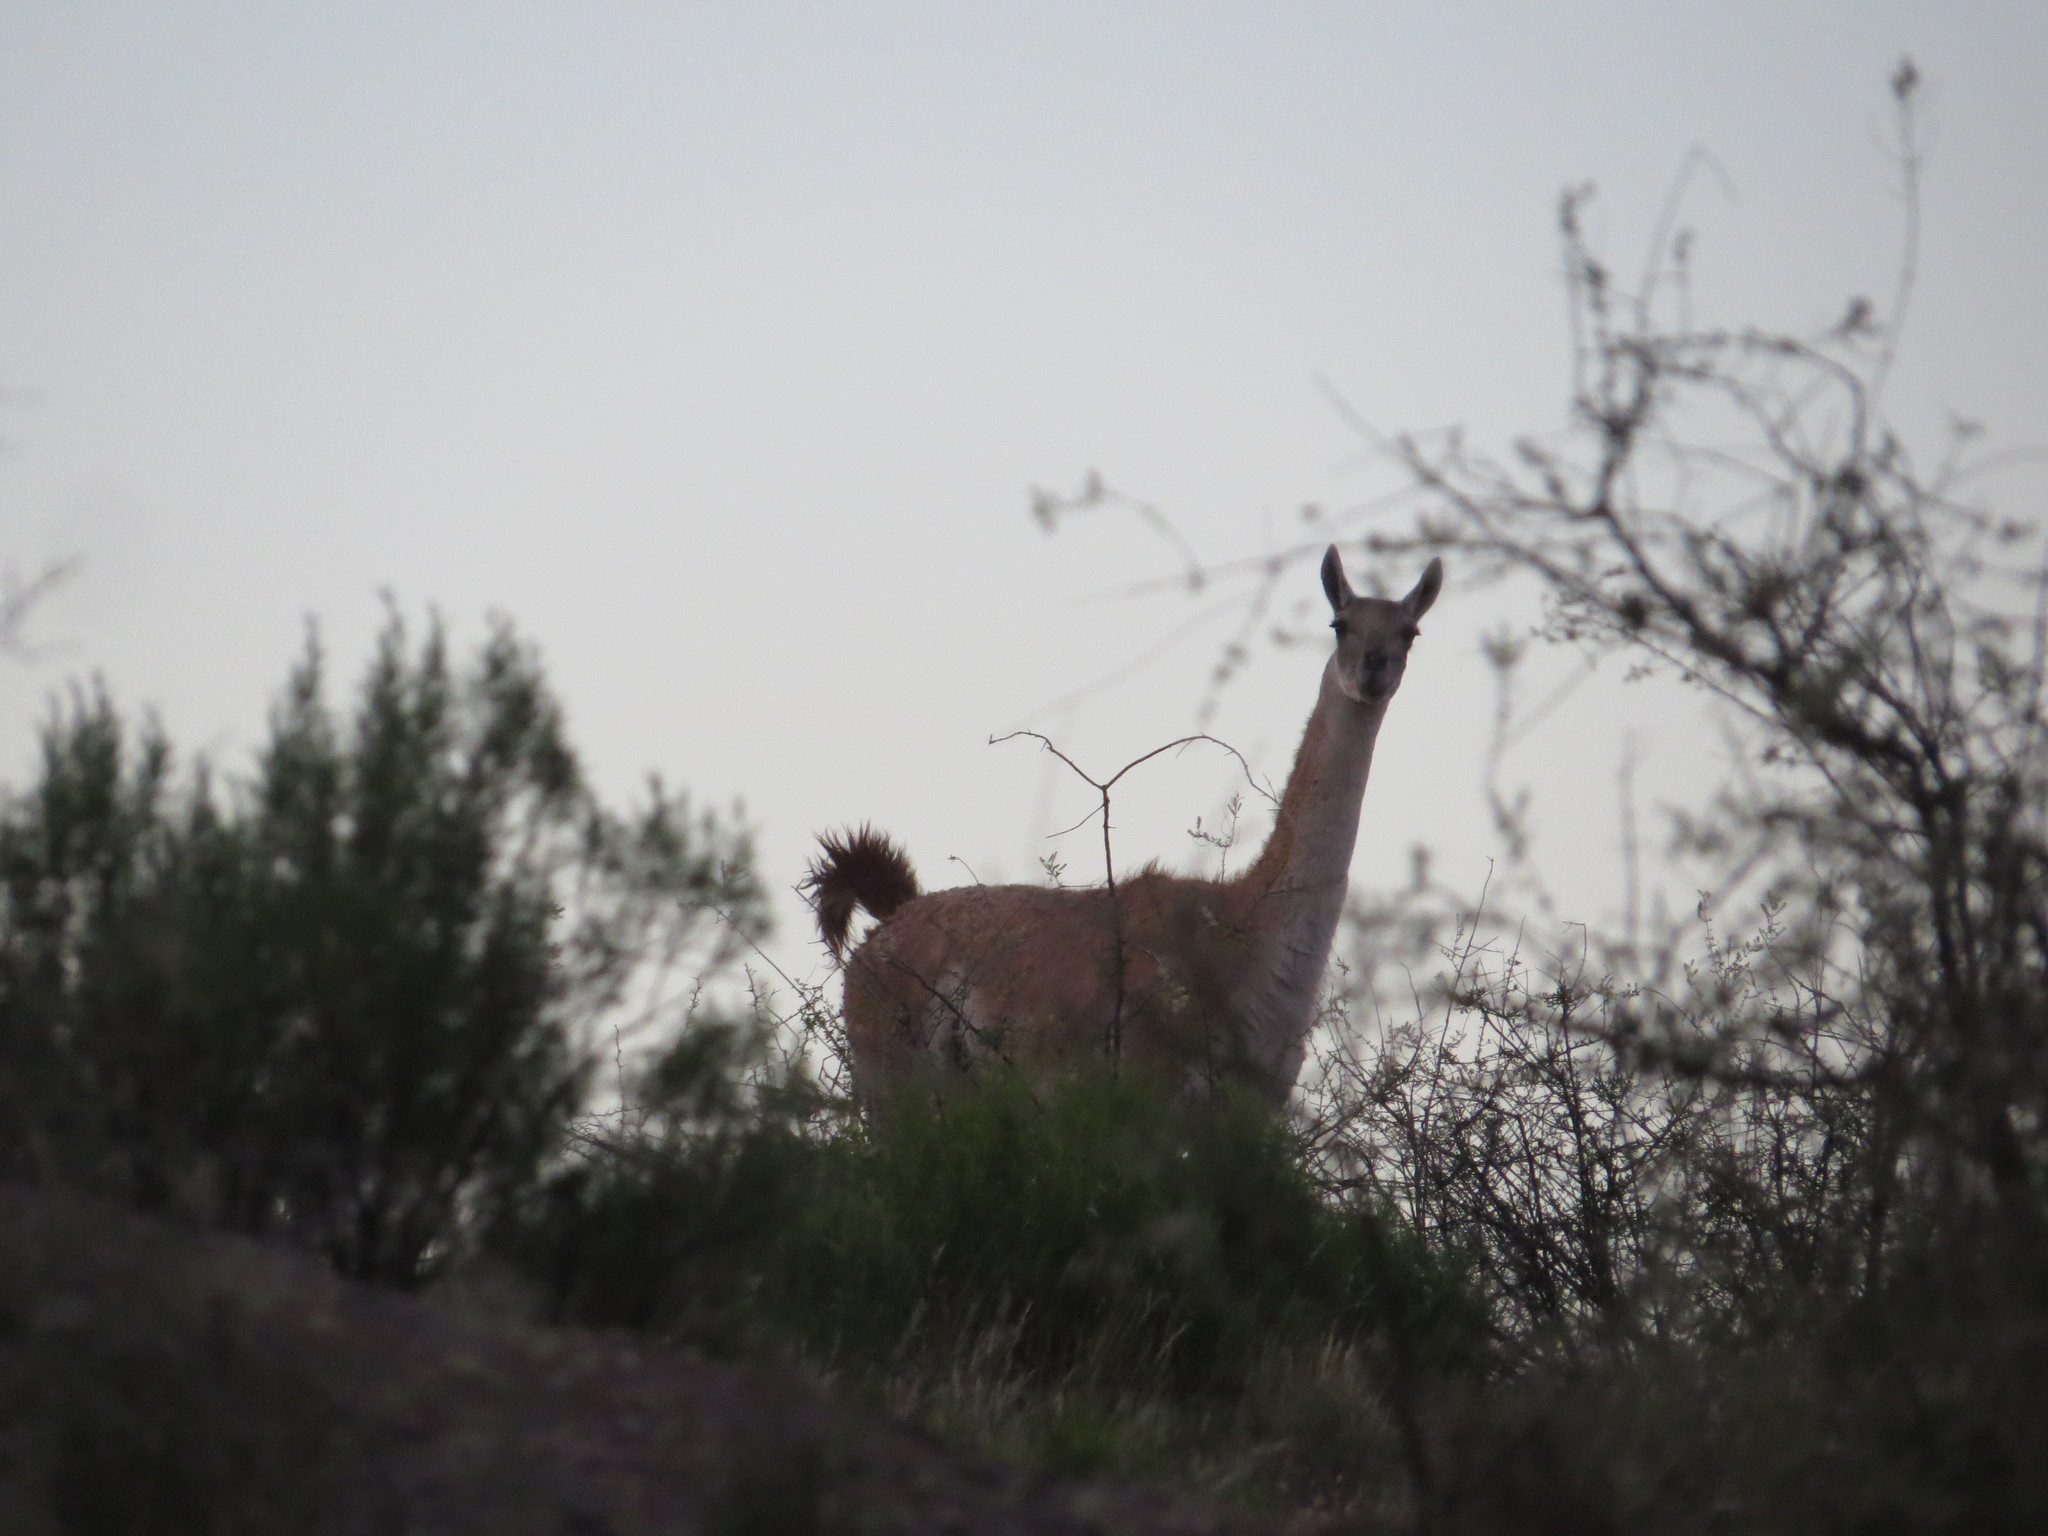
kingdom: Animalia
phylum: Chordata
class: Mammalia
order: Artiodactyla
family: Camelidae
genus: Lama
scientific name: Lama glama
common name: Llama
